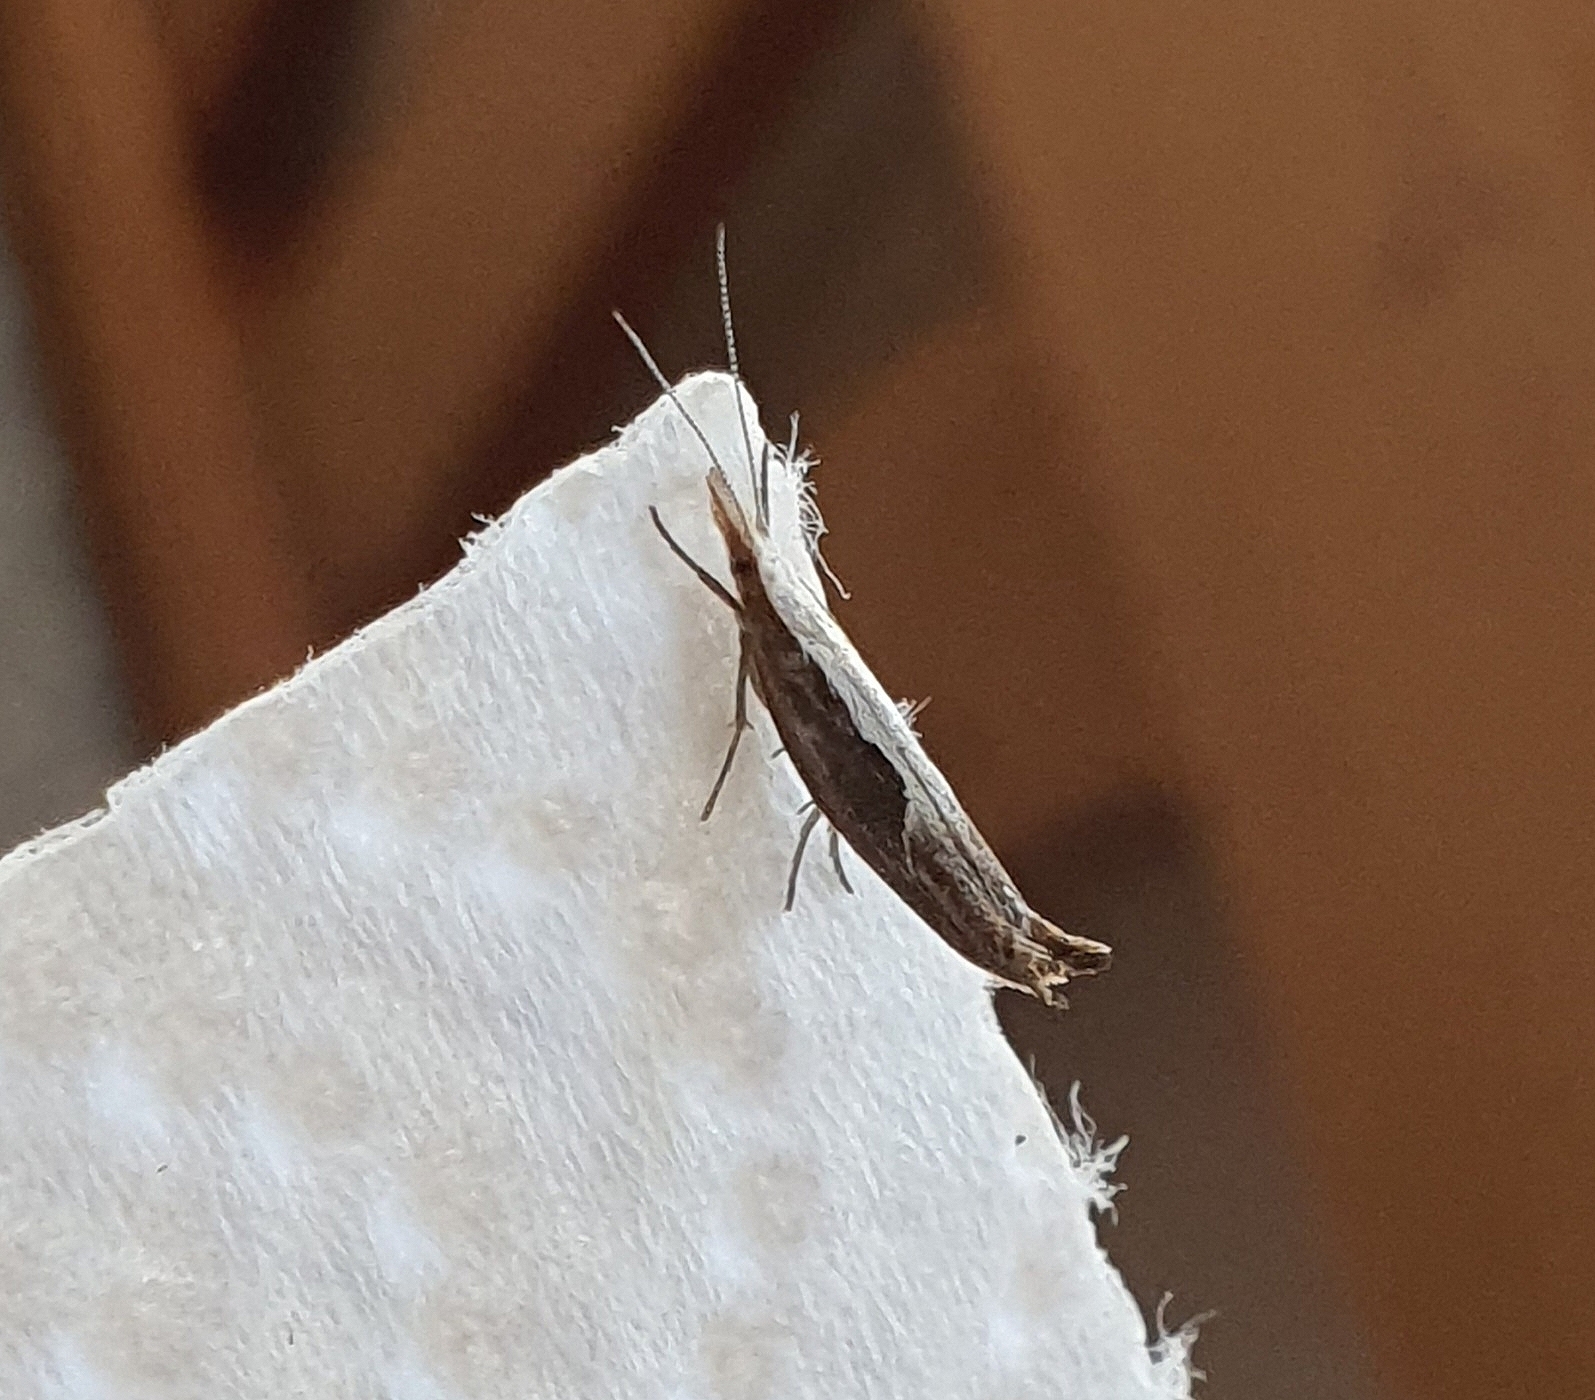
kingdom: Animalia
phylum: Arthropoda
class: Insecta
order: Lepidoptera
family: Ypsolophidae
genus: Ypsolopha
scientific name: Ypsolopha dentella
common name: Honeysuckle moth
